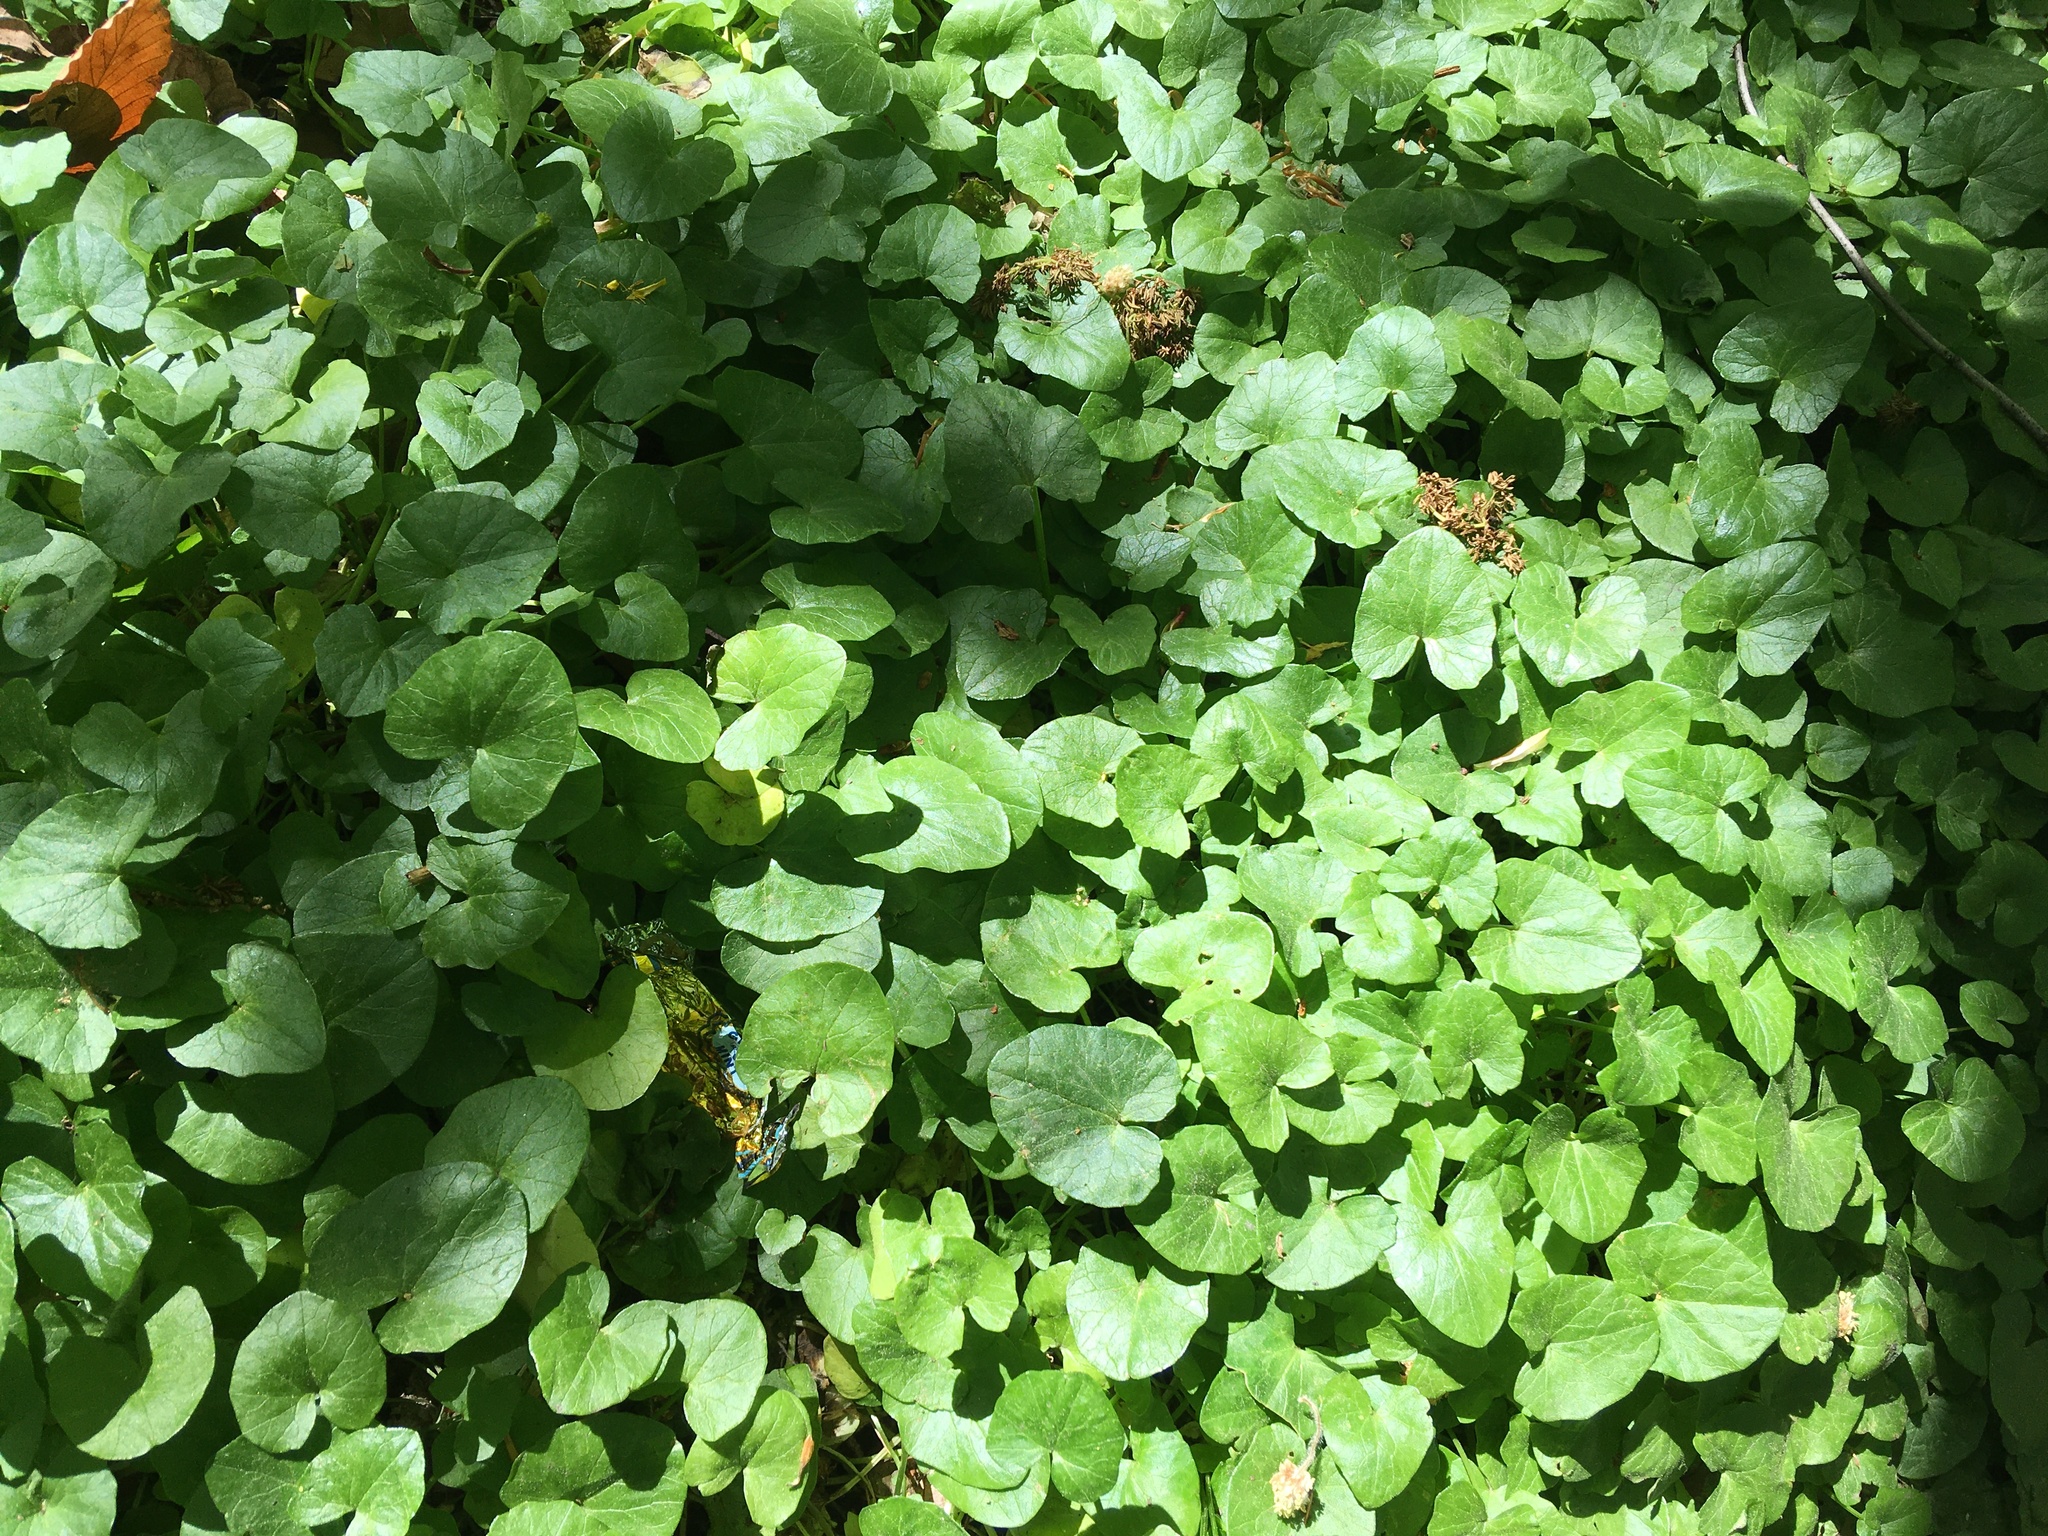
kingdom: Plantae
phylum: Tracheophyta
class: Magnoliopsida
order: Ranunculales
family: Ranunculaceae
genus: Ficaria
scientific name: Ficaria verna
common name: Lesser celandine
